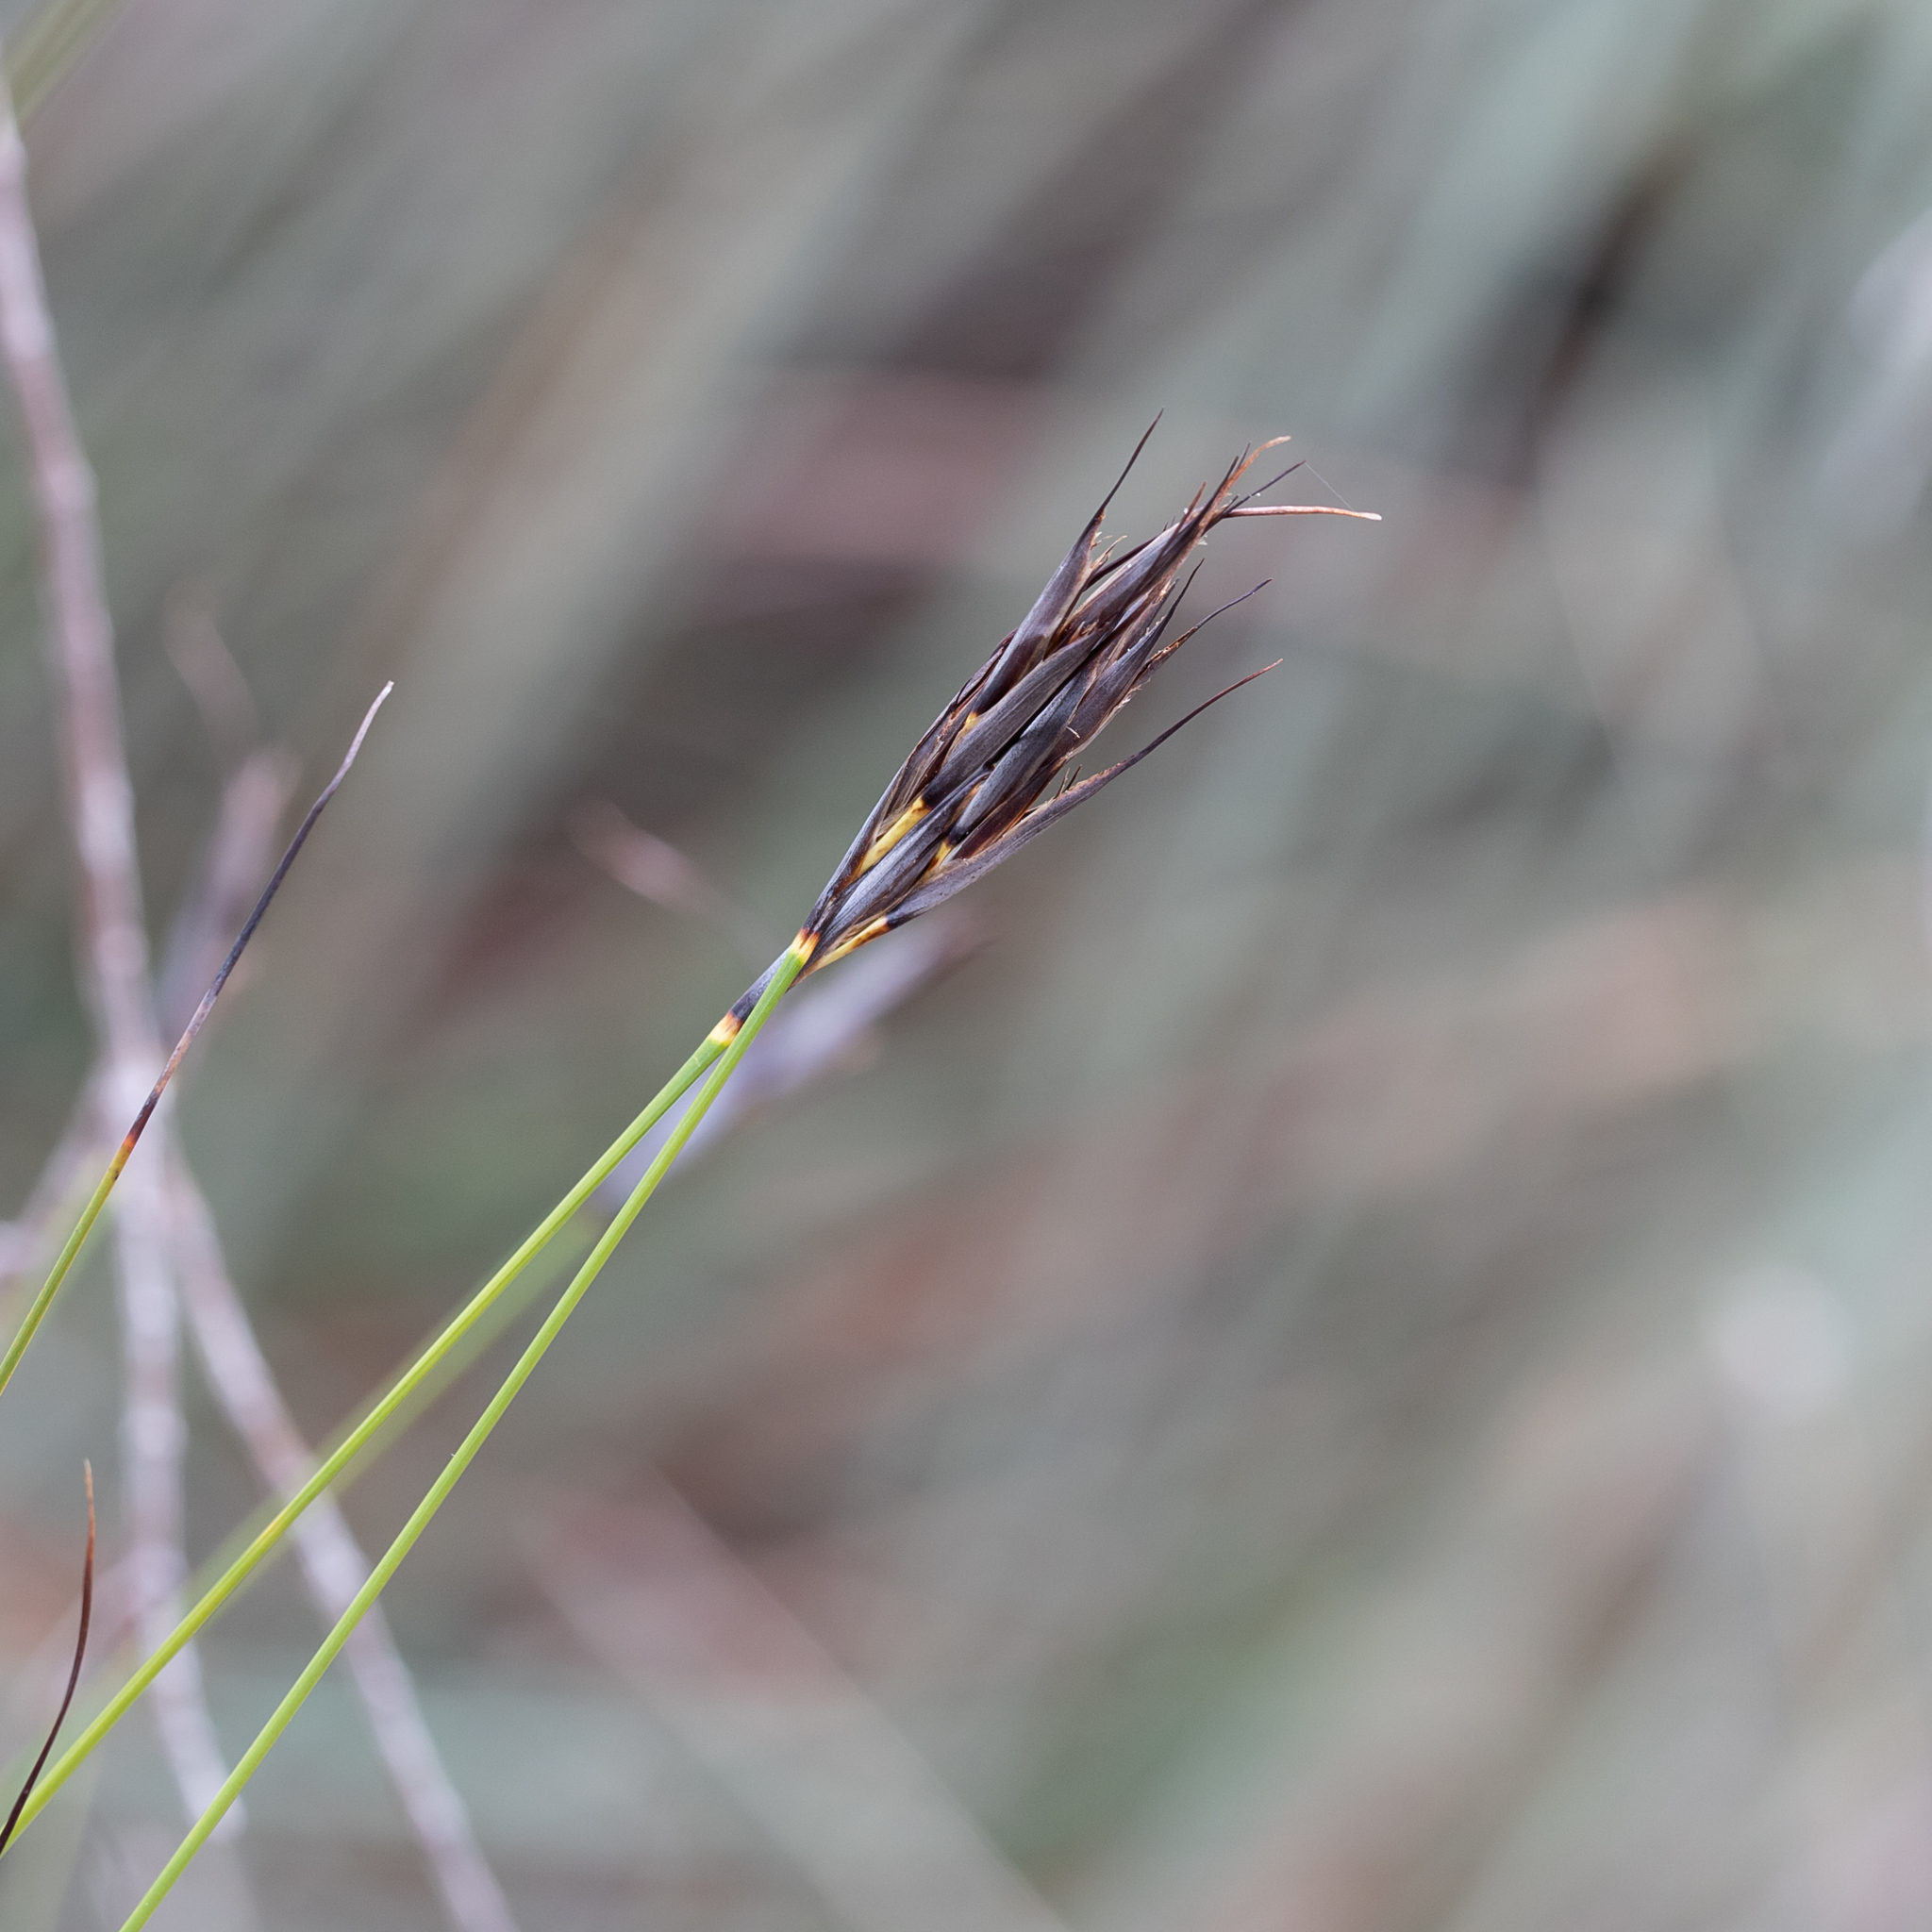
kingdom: Plantae
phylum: Tracheophyta
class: Liliopsida
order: Poales
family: Cyperaceae
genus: Lepidosperma
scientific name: Lepidosperma carphoides
